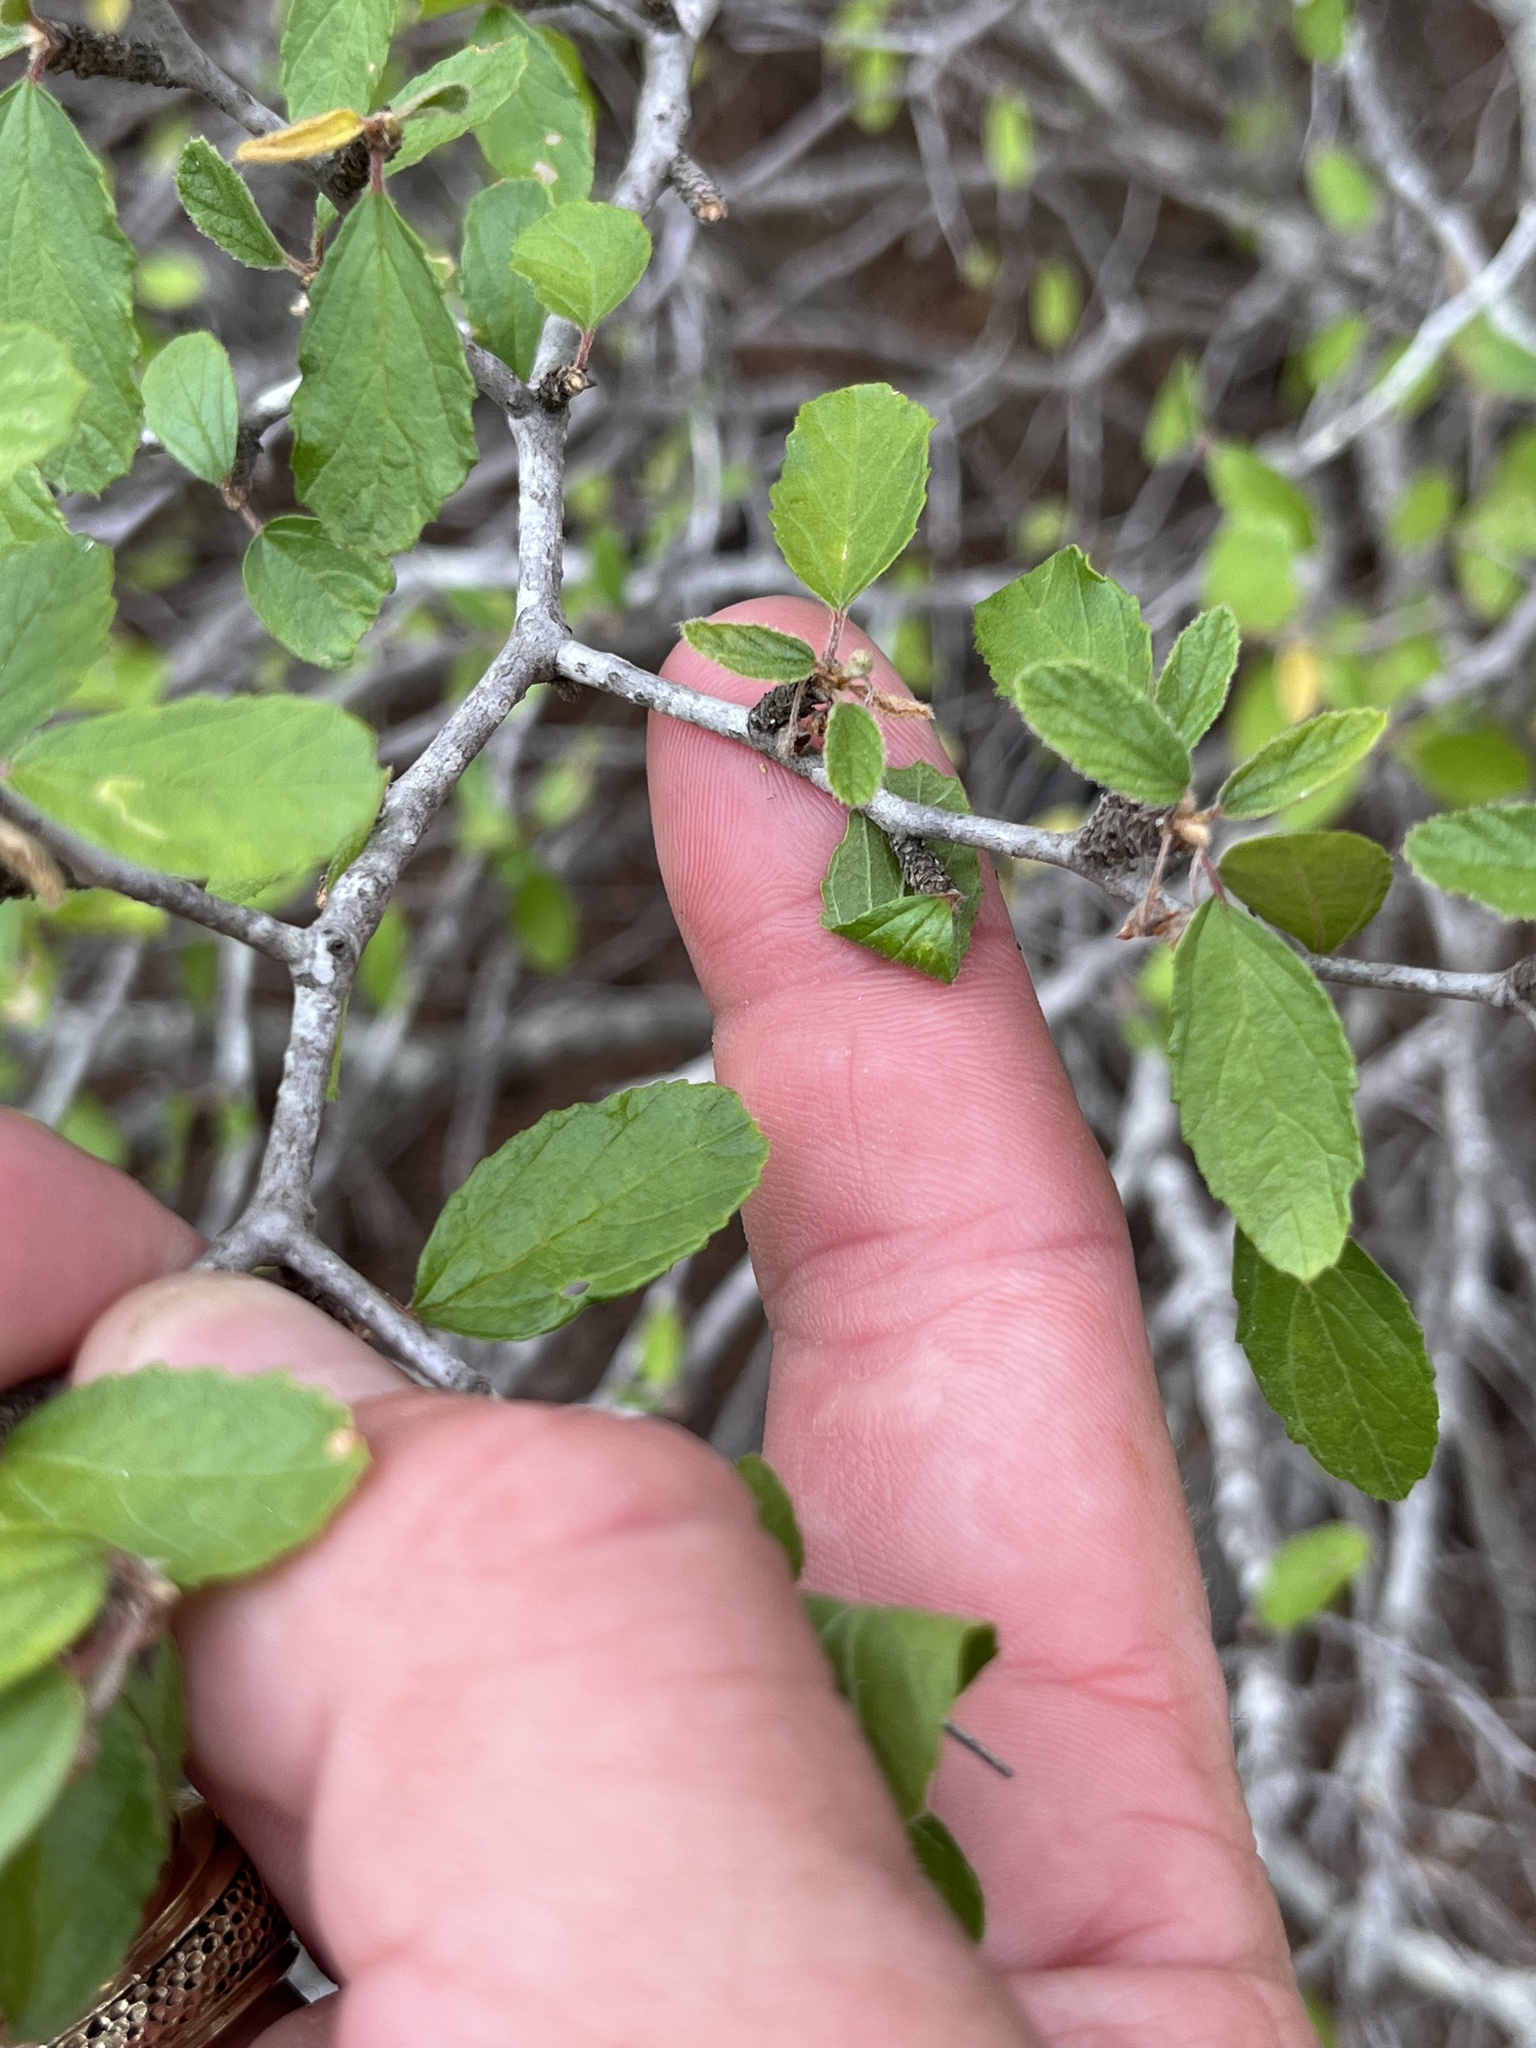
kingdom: Plantae
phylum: Tracheophyta
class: Magnoliopsida
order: Rosales
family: Rhamnaceae
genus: Colubrina
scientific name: Colubrina texensis
